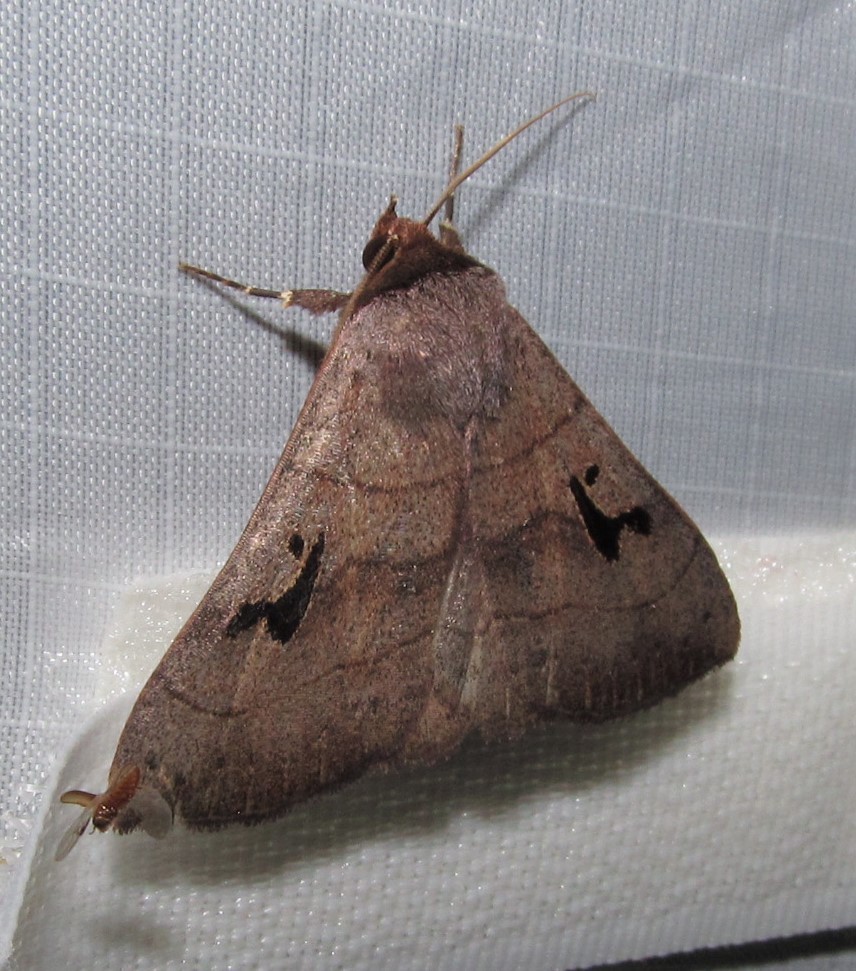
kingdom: Animalia
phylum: Arthropoda
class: Insecta
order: Lepidoptera
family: Erebidae
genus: Panopoda
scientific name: Panopoda carneicosta
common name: Brown panopoda moth
